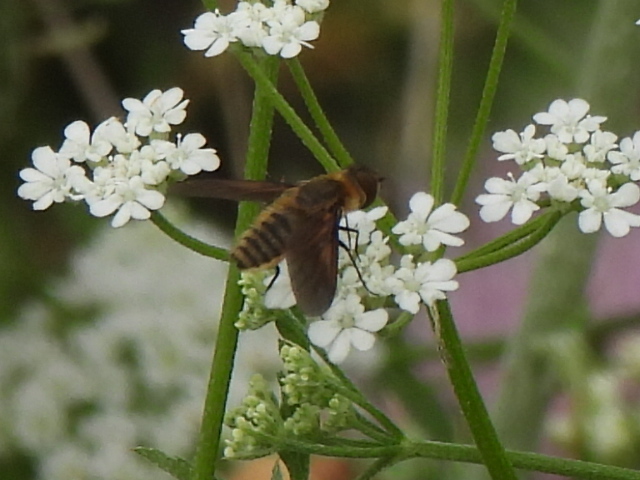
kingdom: Animalia
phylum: Arthropoda
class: Insecta
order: Diptera
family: Bombyliidae
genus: Poecilanthrax
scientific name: Poecilanthrax lucifer
